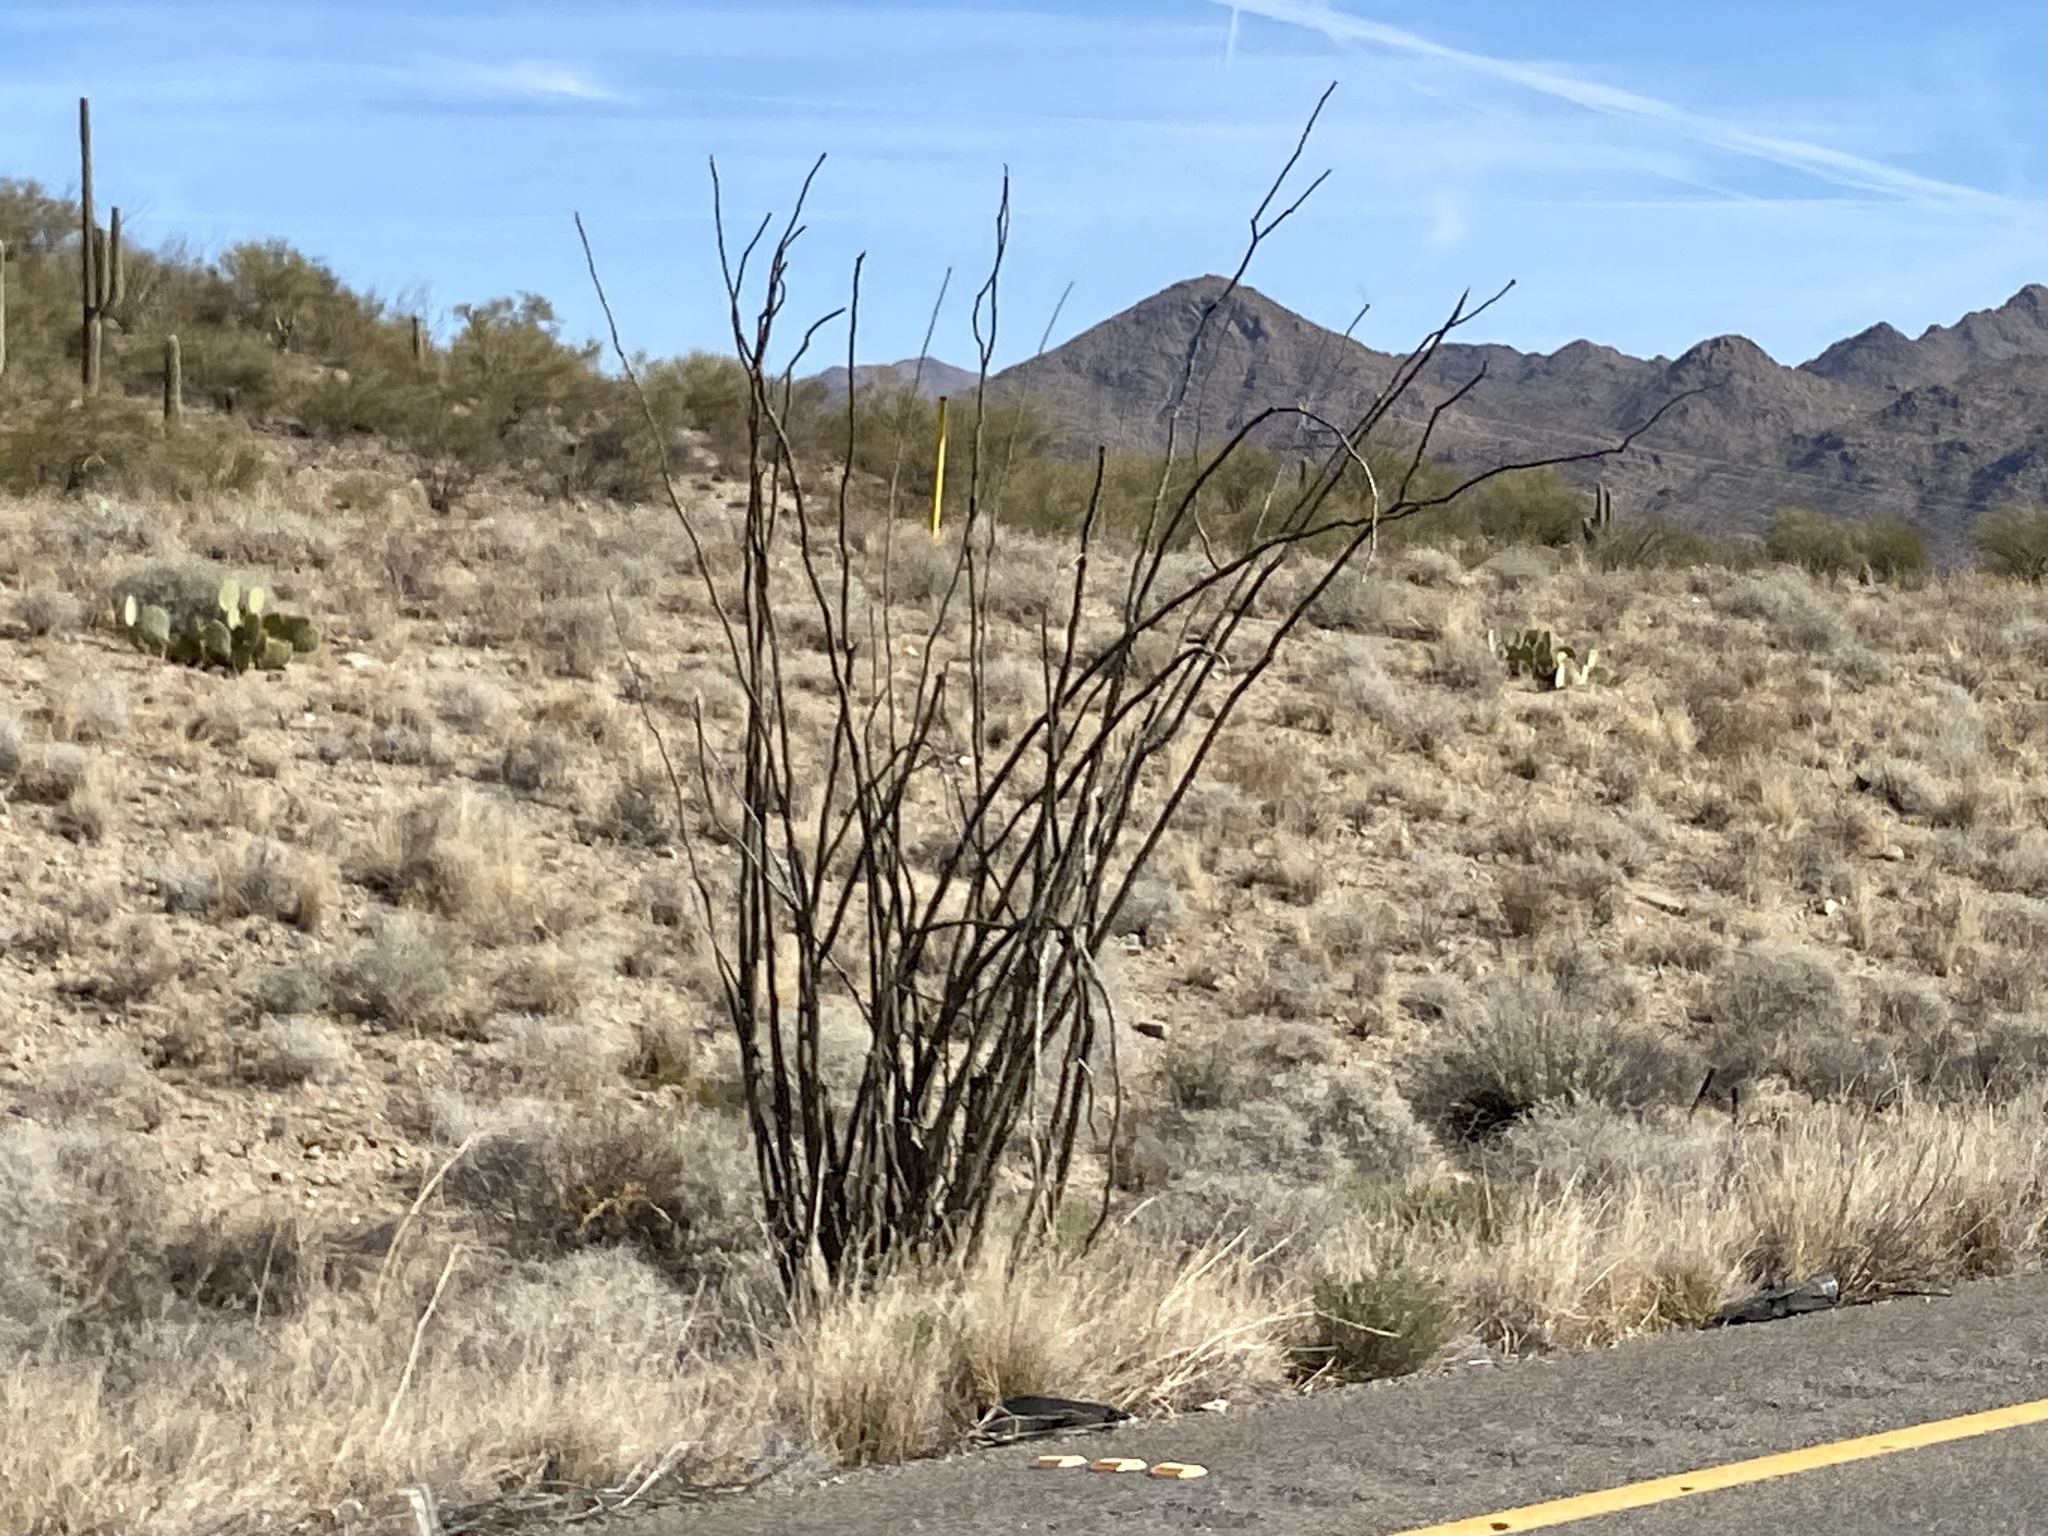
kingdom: Plantae
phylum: Tracheophyta
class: Magnoliopsida
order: Ericales
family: Fouquieriaceae
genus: Fouquieria
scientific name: Fouquieria splendens
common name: Vine-cactus
